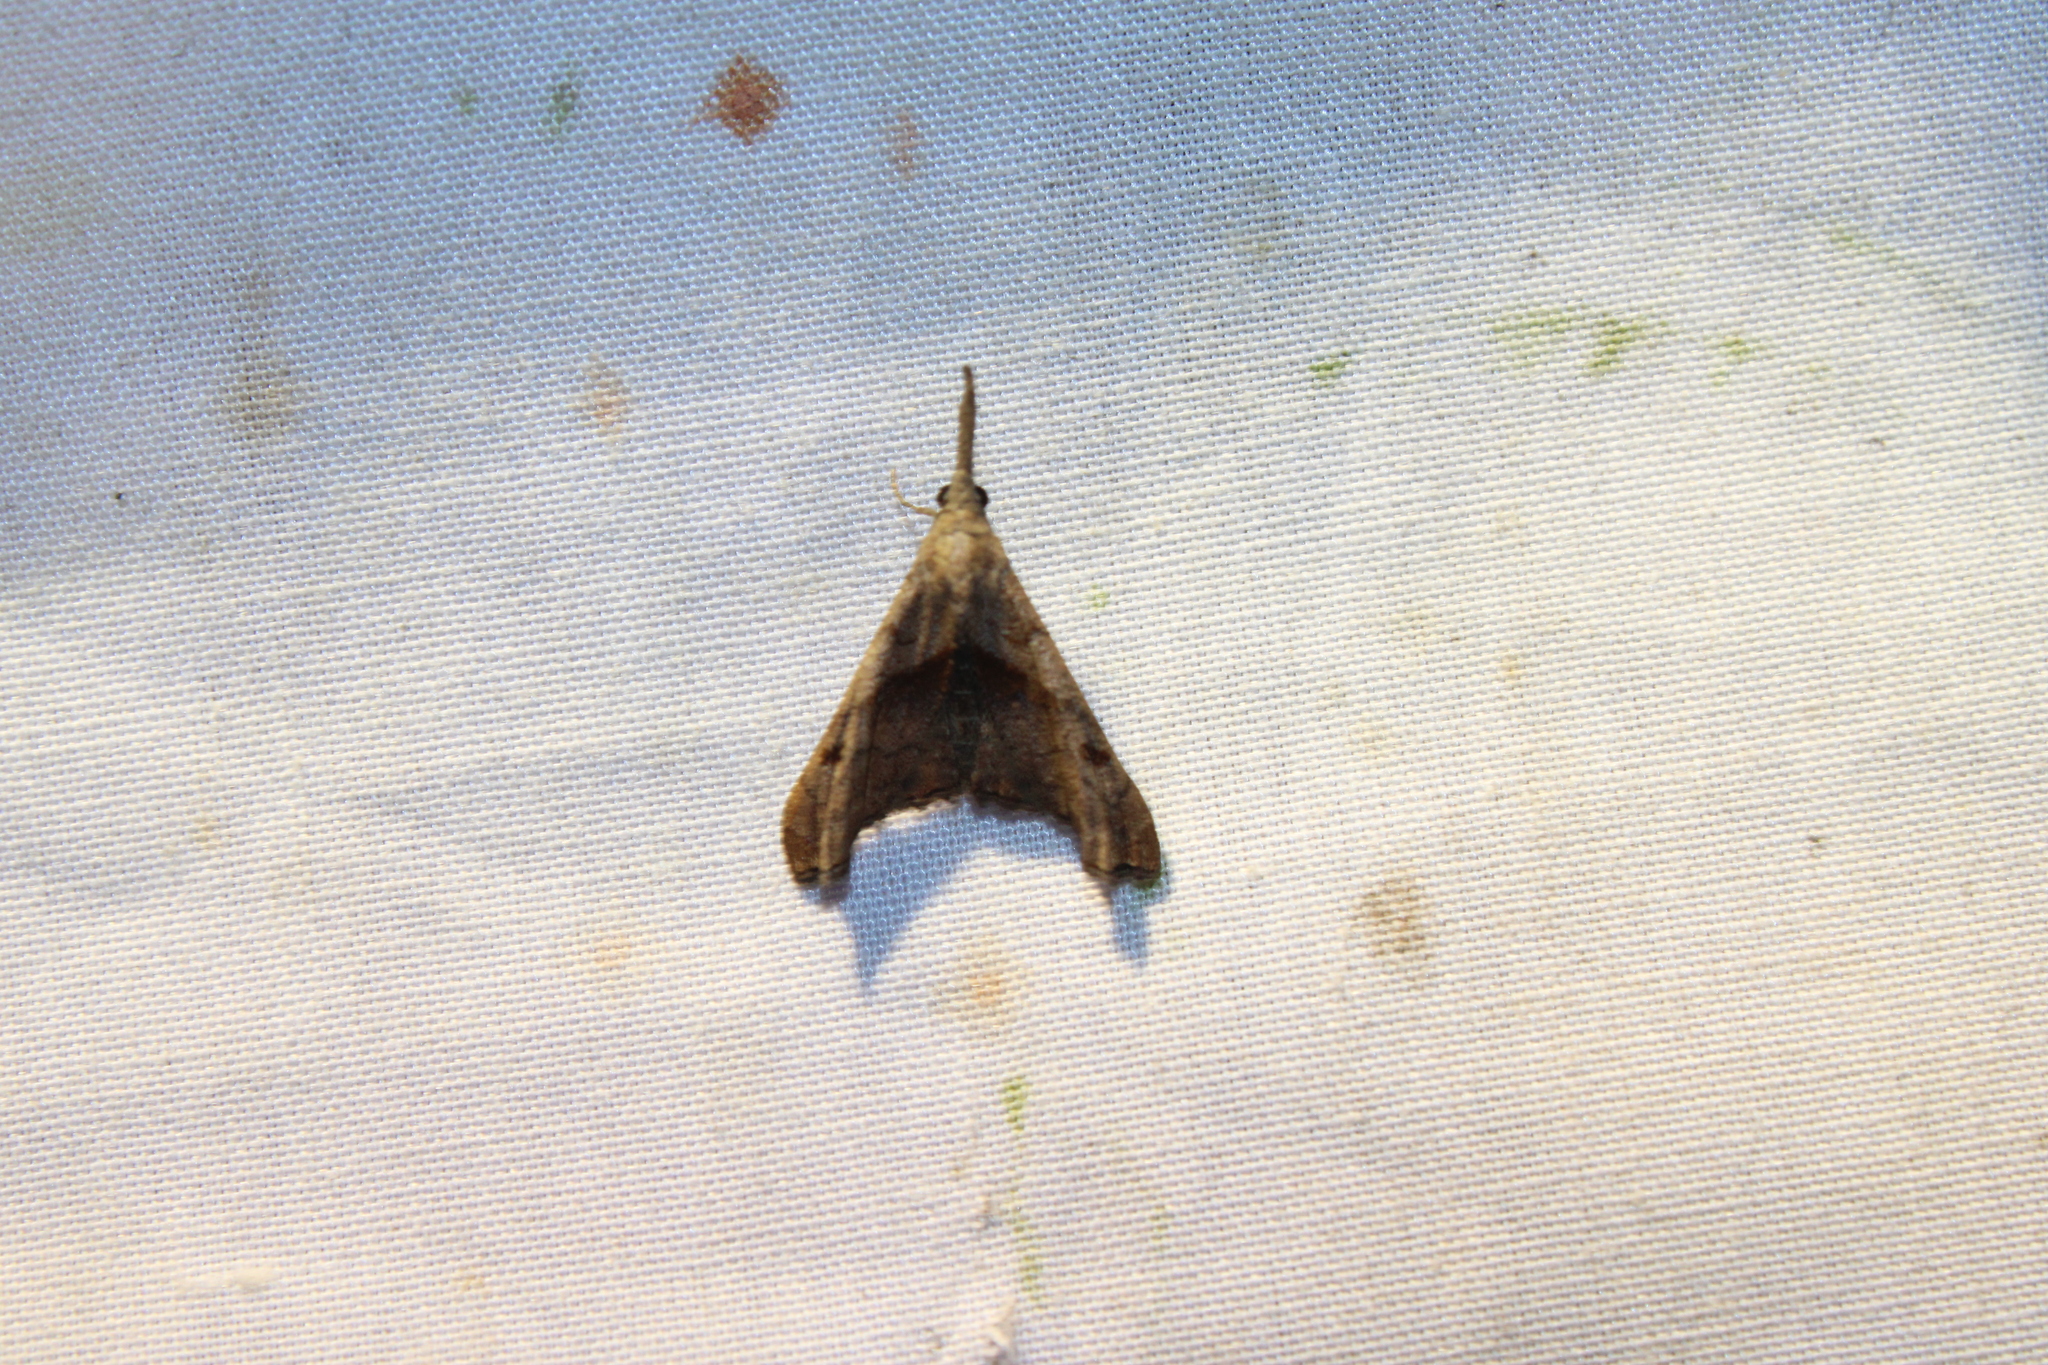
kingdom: Animalia
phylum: Arthropoda
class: Insecta
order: Lepidoptera
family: Erebidae
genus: Palthis
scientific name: Palthis angulalis
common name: Dark-spotted palthis moth
